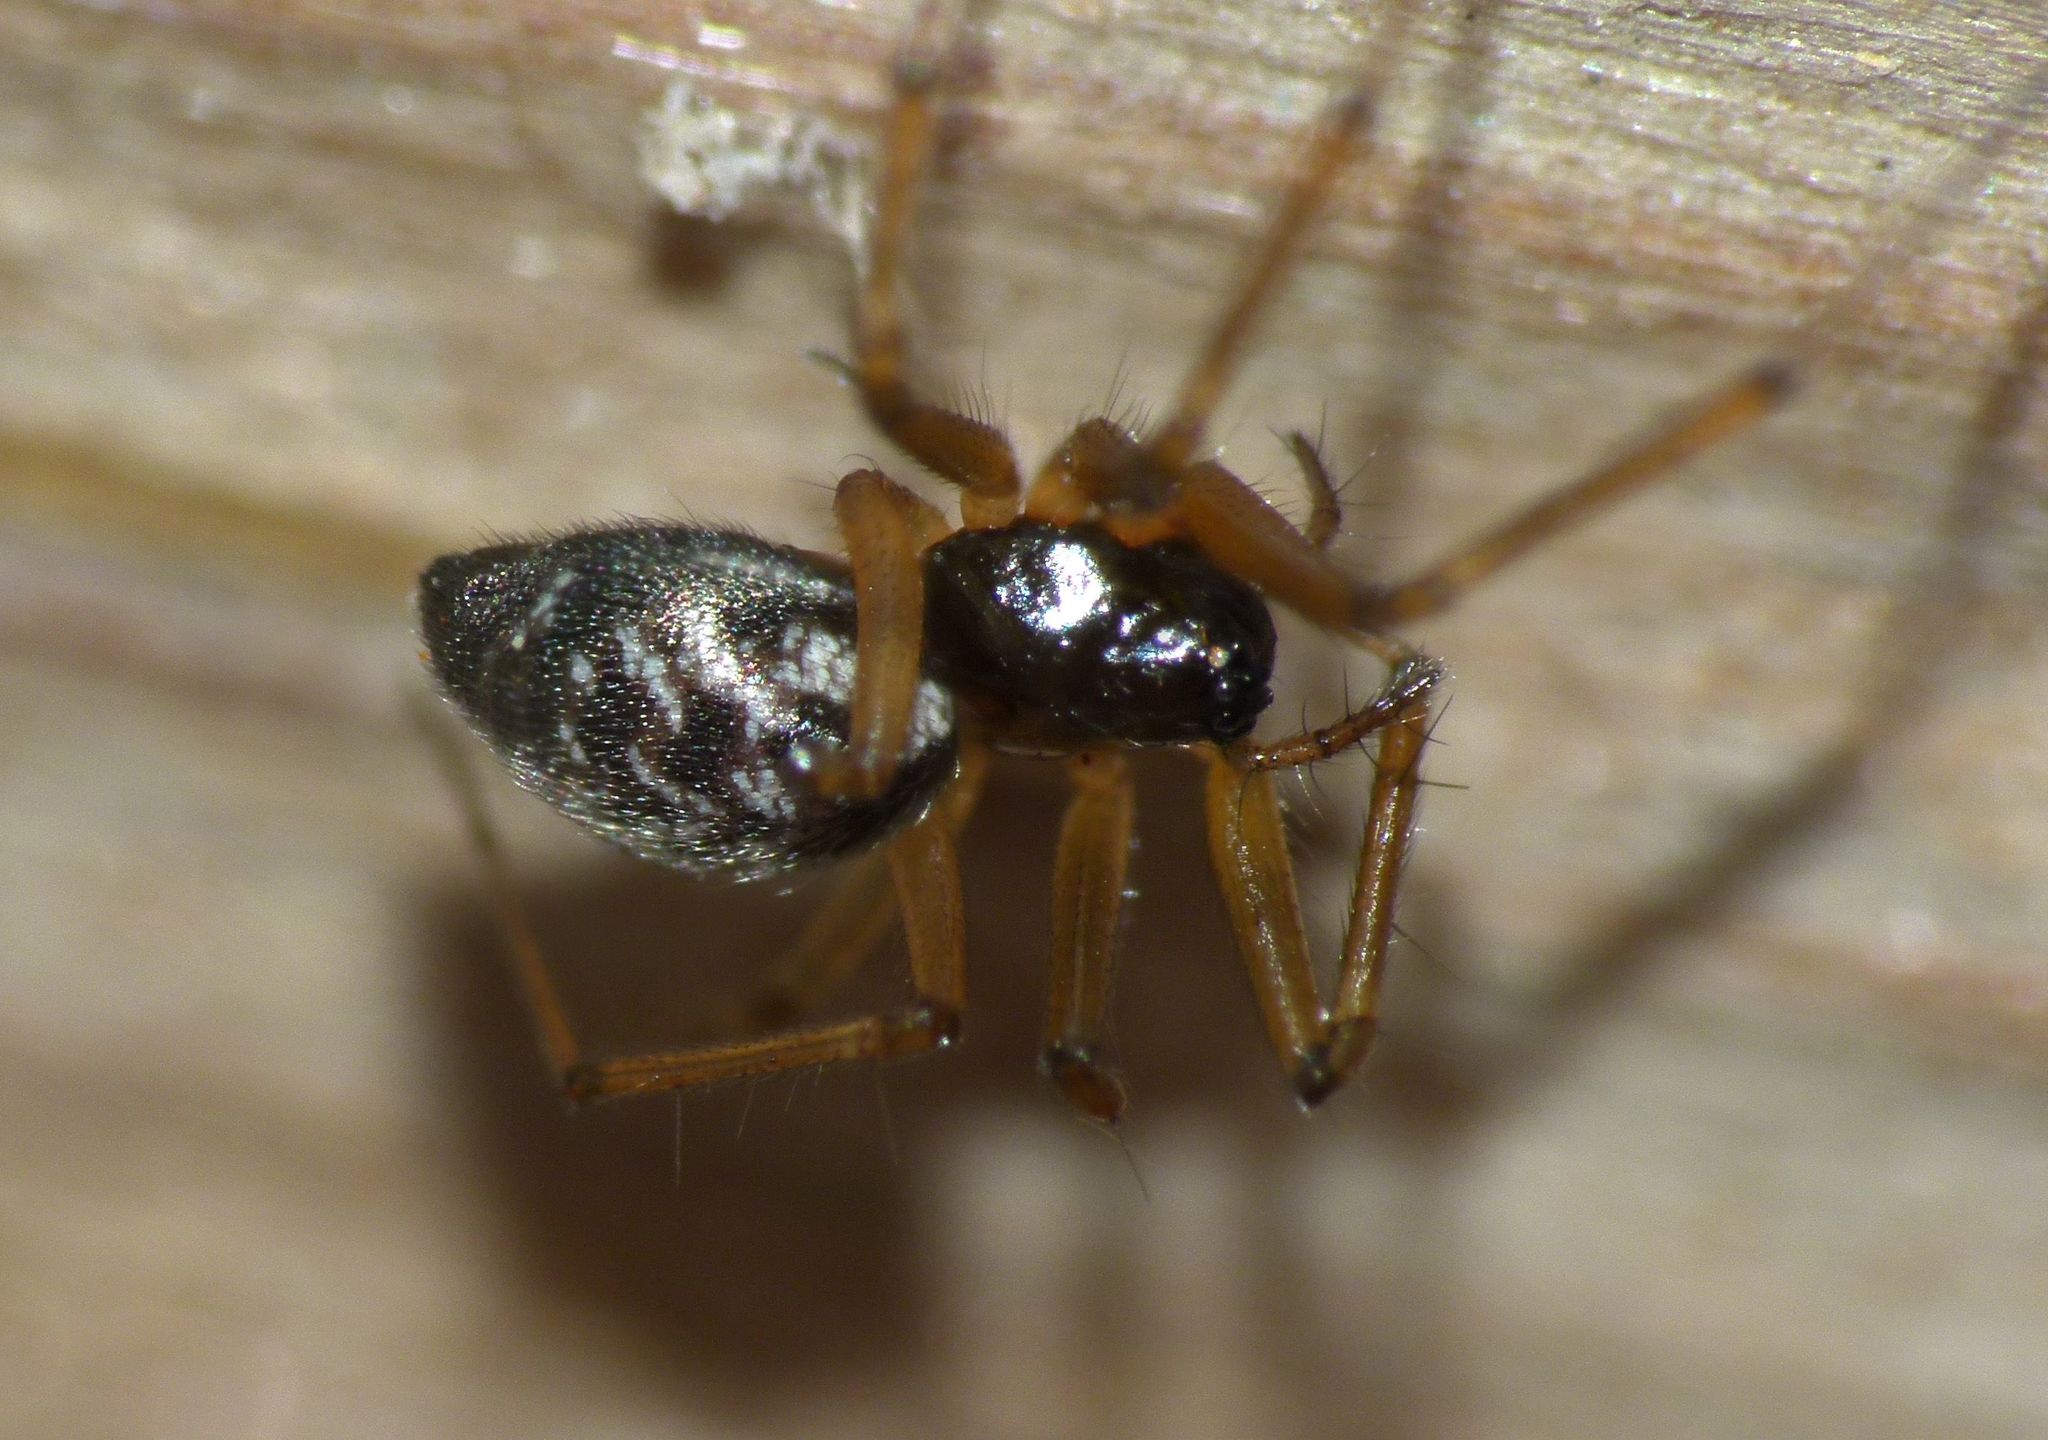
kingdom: Animalia
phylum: Arthropoda
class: Arachnida
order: Araneae
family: Linyphiidae
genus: Tenuiphantes
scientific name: Tenuiphantes tenuis
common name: Dwarf weaver
